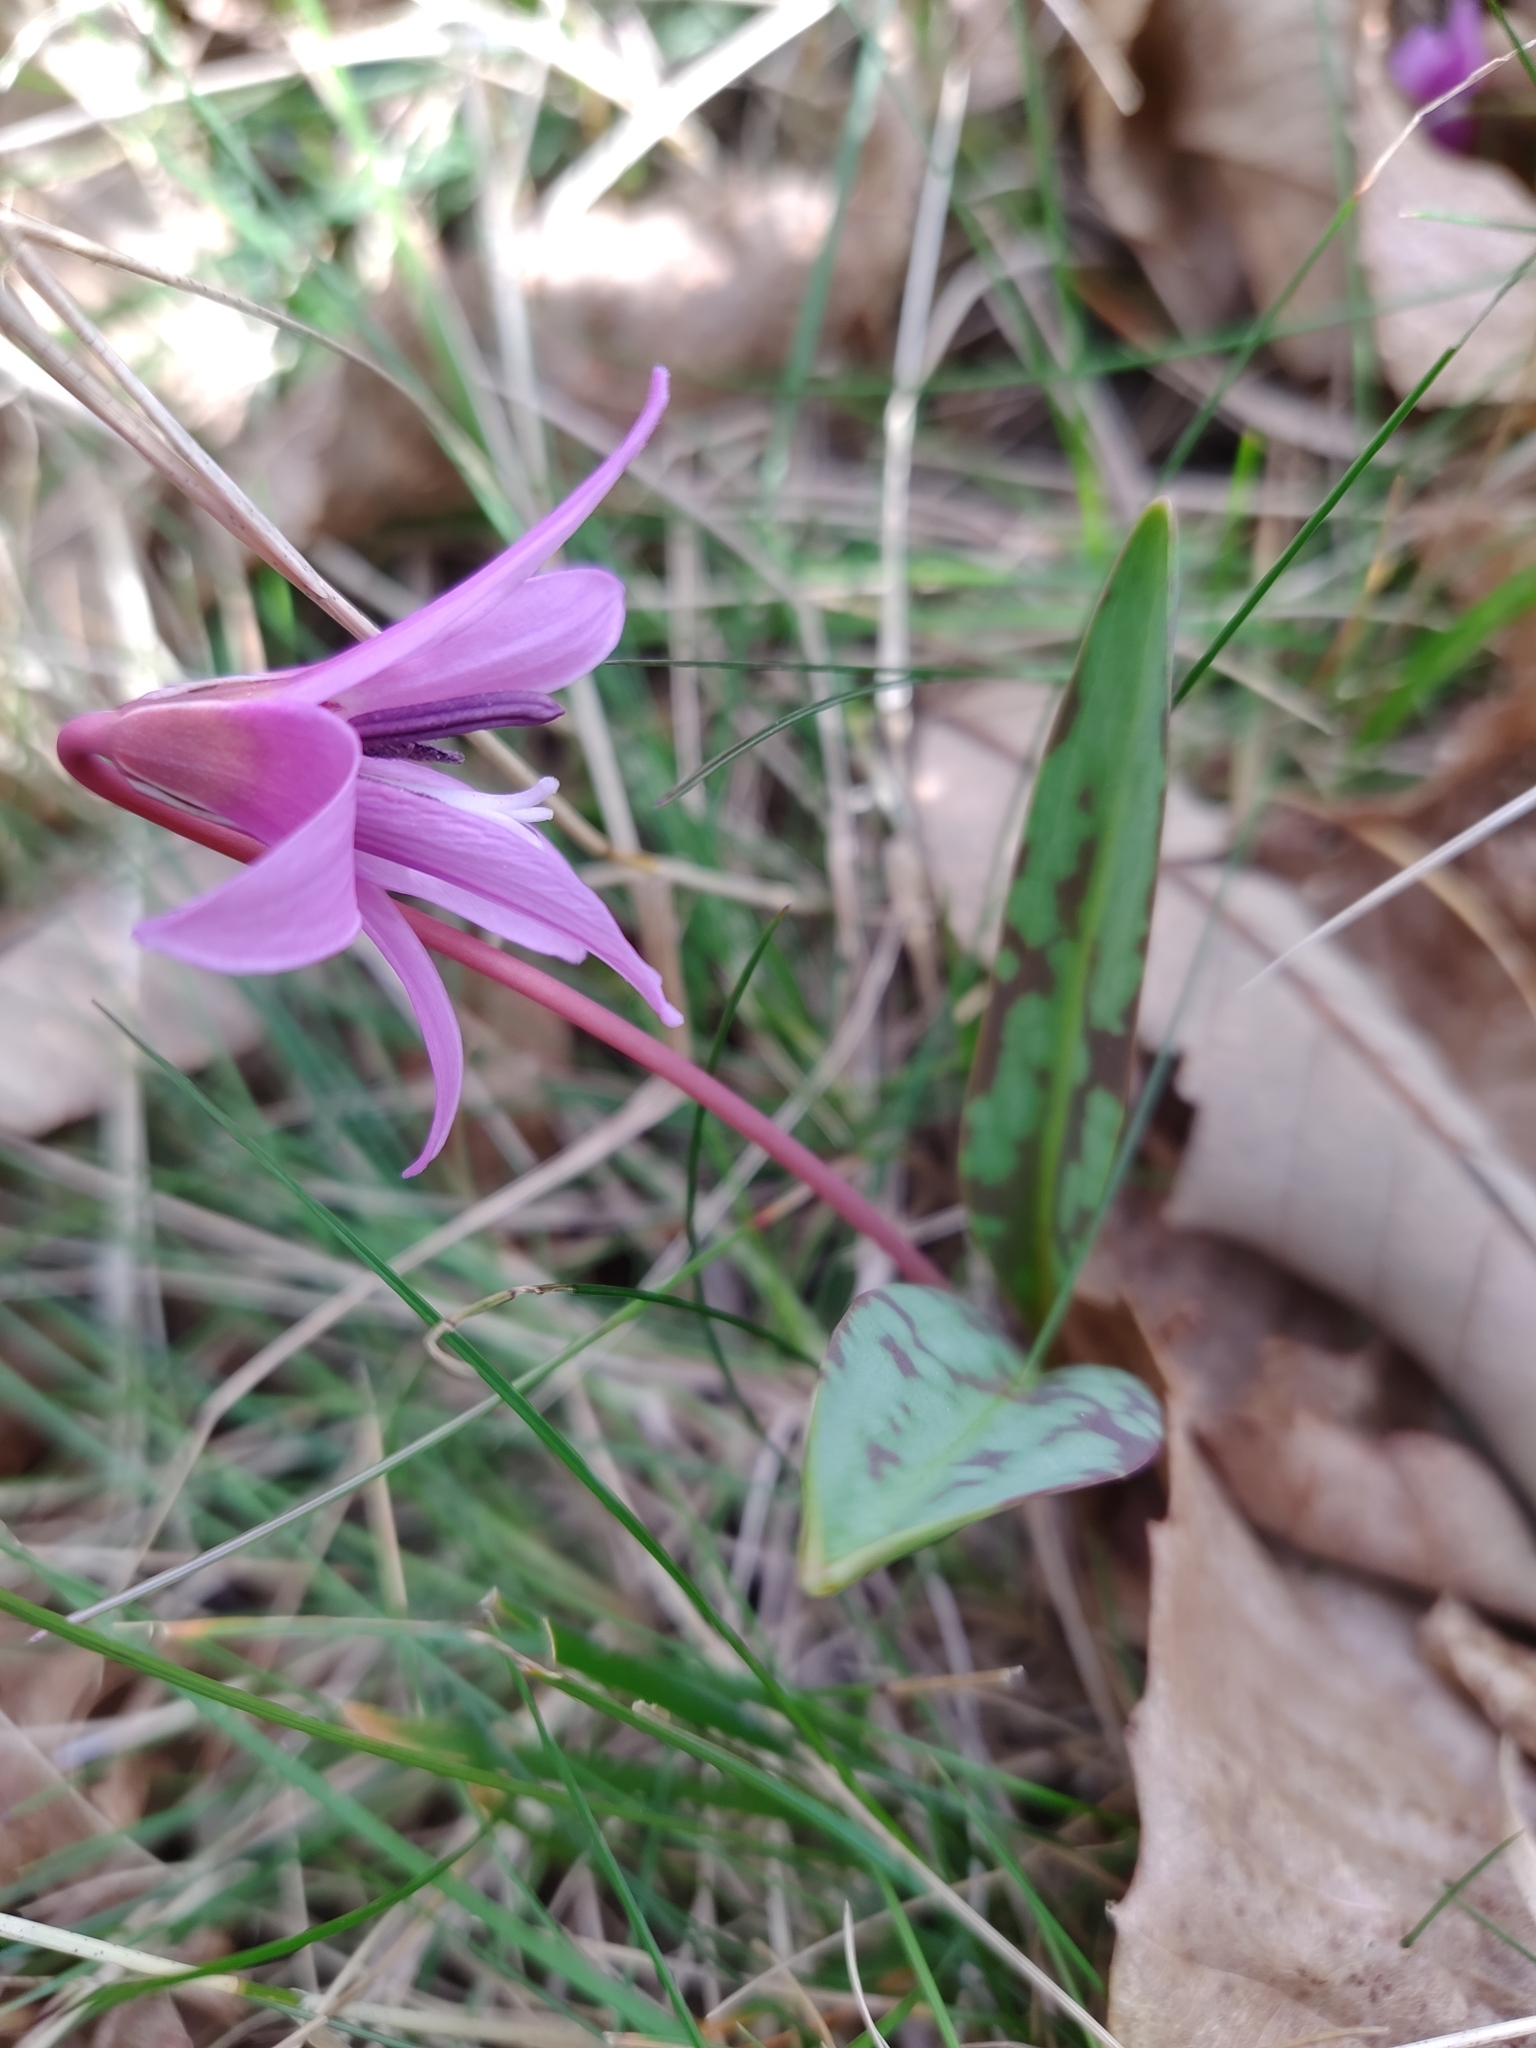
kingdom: Plantae
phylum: Tracheophyta
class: Liliopsida
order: Liliales
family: Liliaceae
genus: Erythronium
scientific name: Erythronium dens-canis
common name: Dog's-tooth-violet
